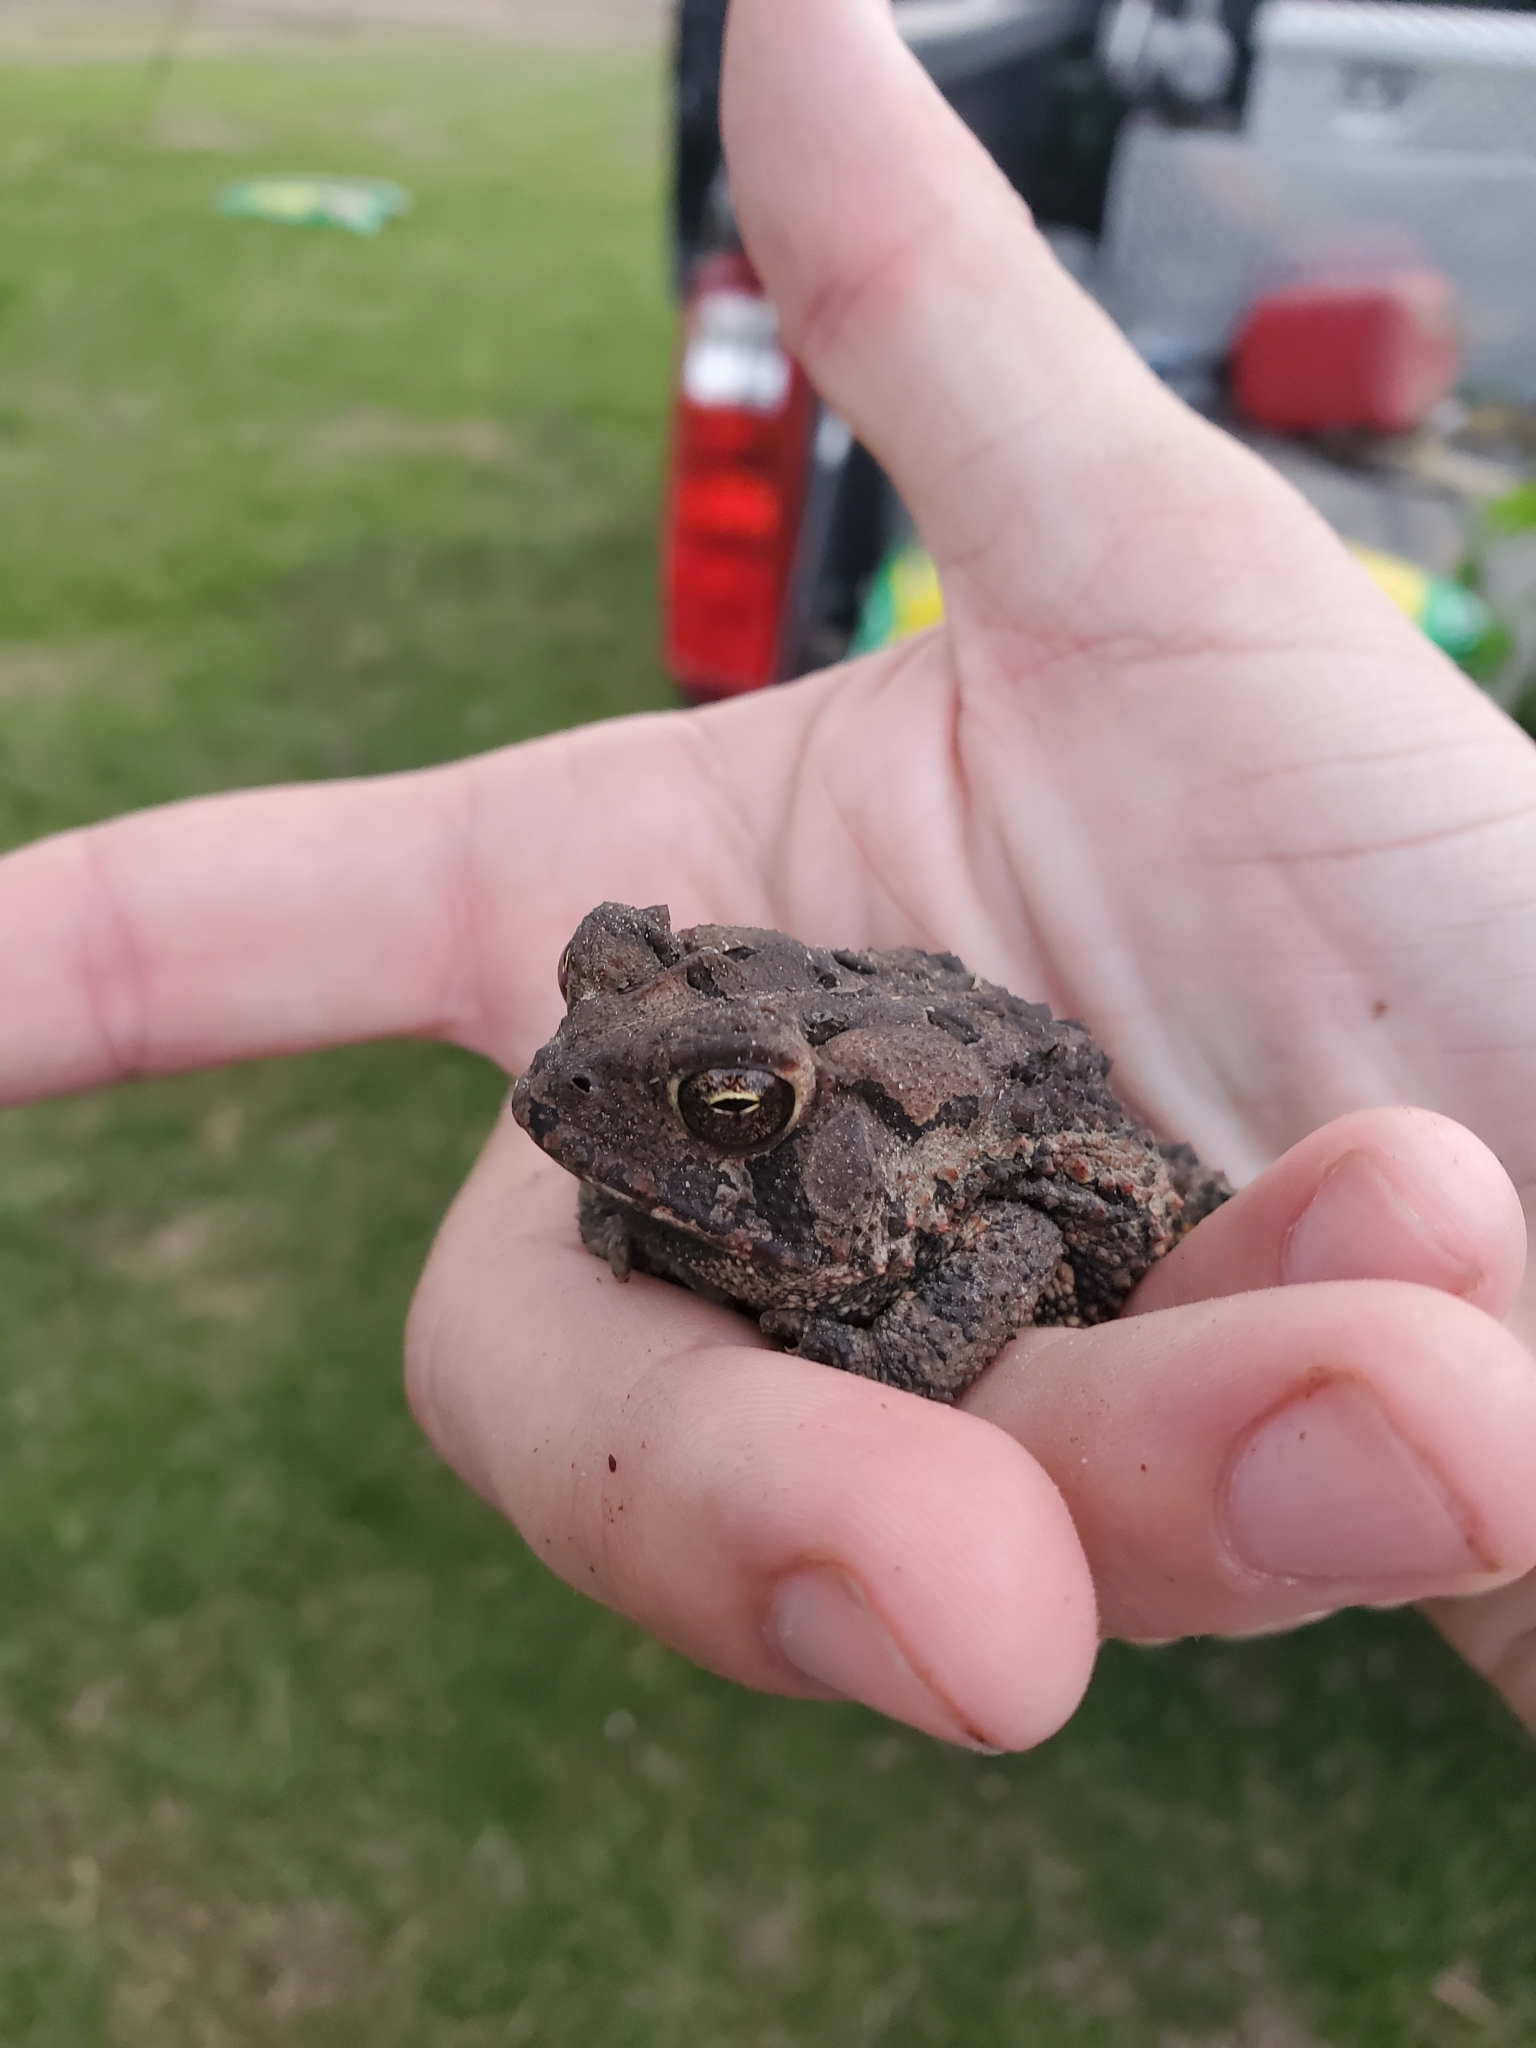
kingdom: Animalia
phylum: Chordata
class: Amphibia
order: Anura
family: Bufonidae
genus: Anaxyrus
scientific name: Anaxyrus fowleri
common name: Fowler's toad
